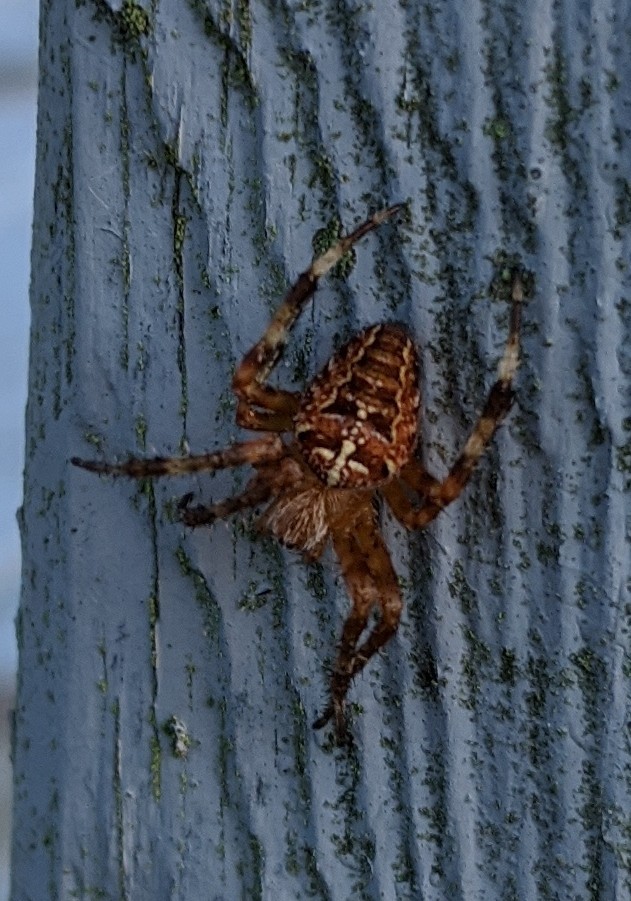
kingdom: Animalia
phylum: Arthropoda
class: Arachnida
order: Araneae
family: Araneidae
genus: Araneus
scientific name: Araneus diadematus
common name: Cross orbweaver
